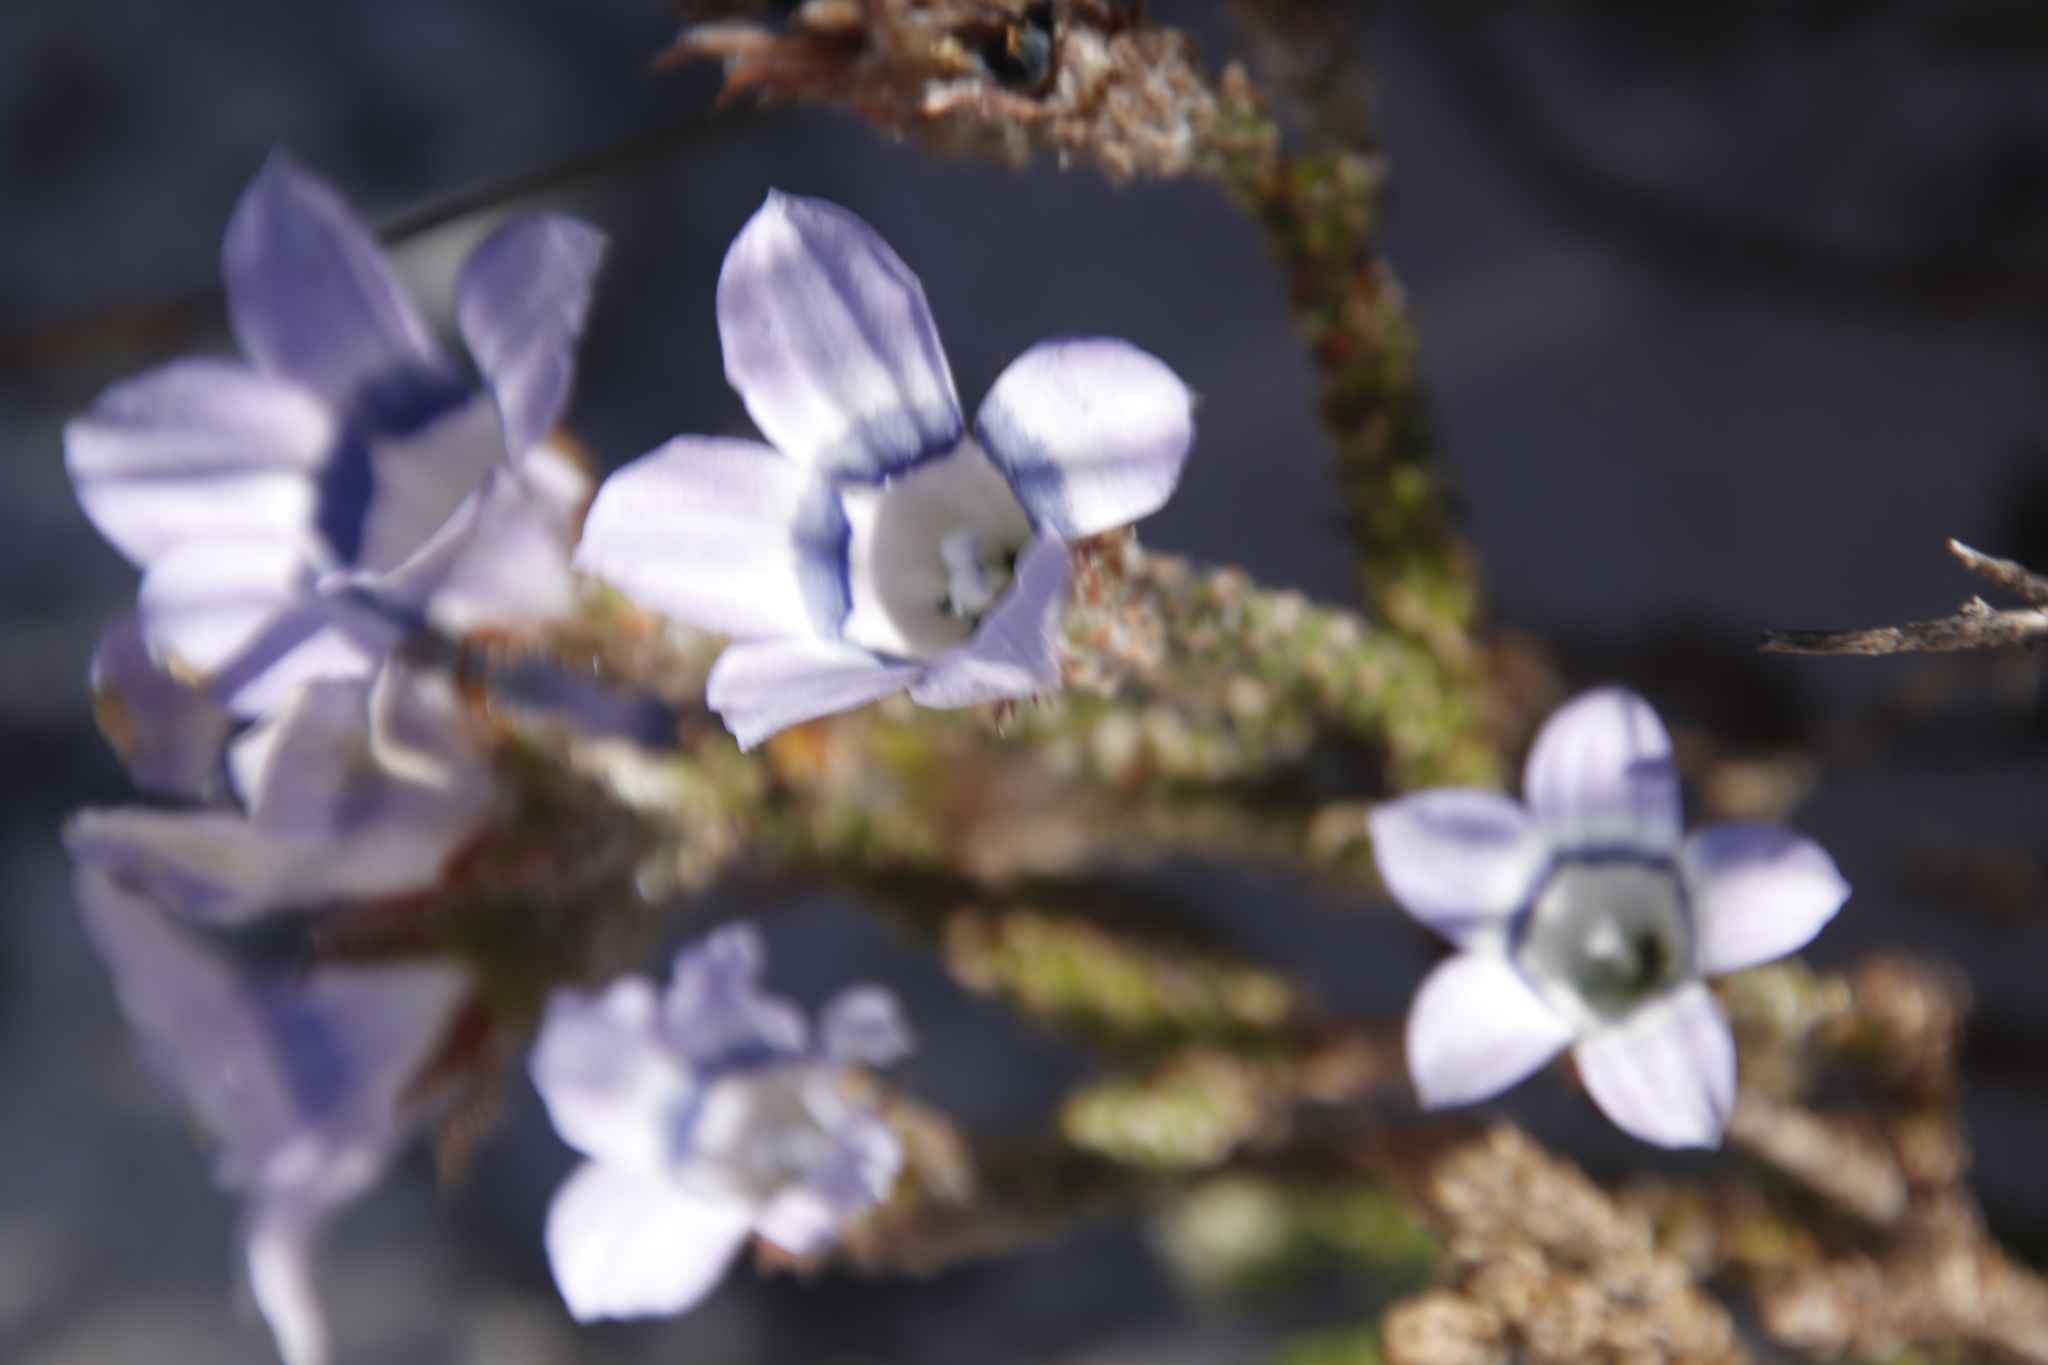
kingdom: Plantae
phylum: Tracheophyta
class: Magnoliopsida
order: Asterales
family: Campanulaceae
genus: Roella
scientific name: Roella ciliata
